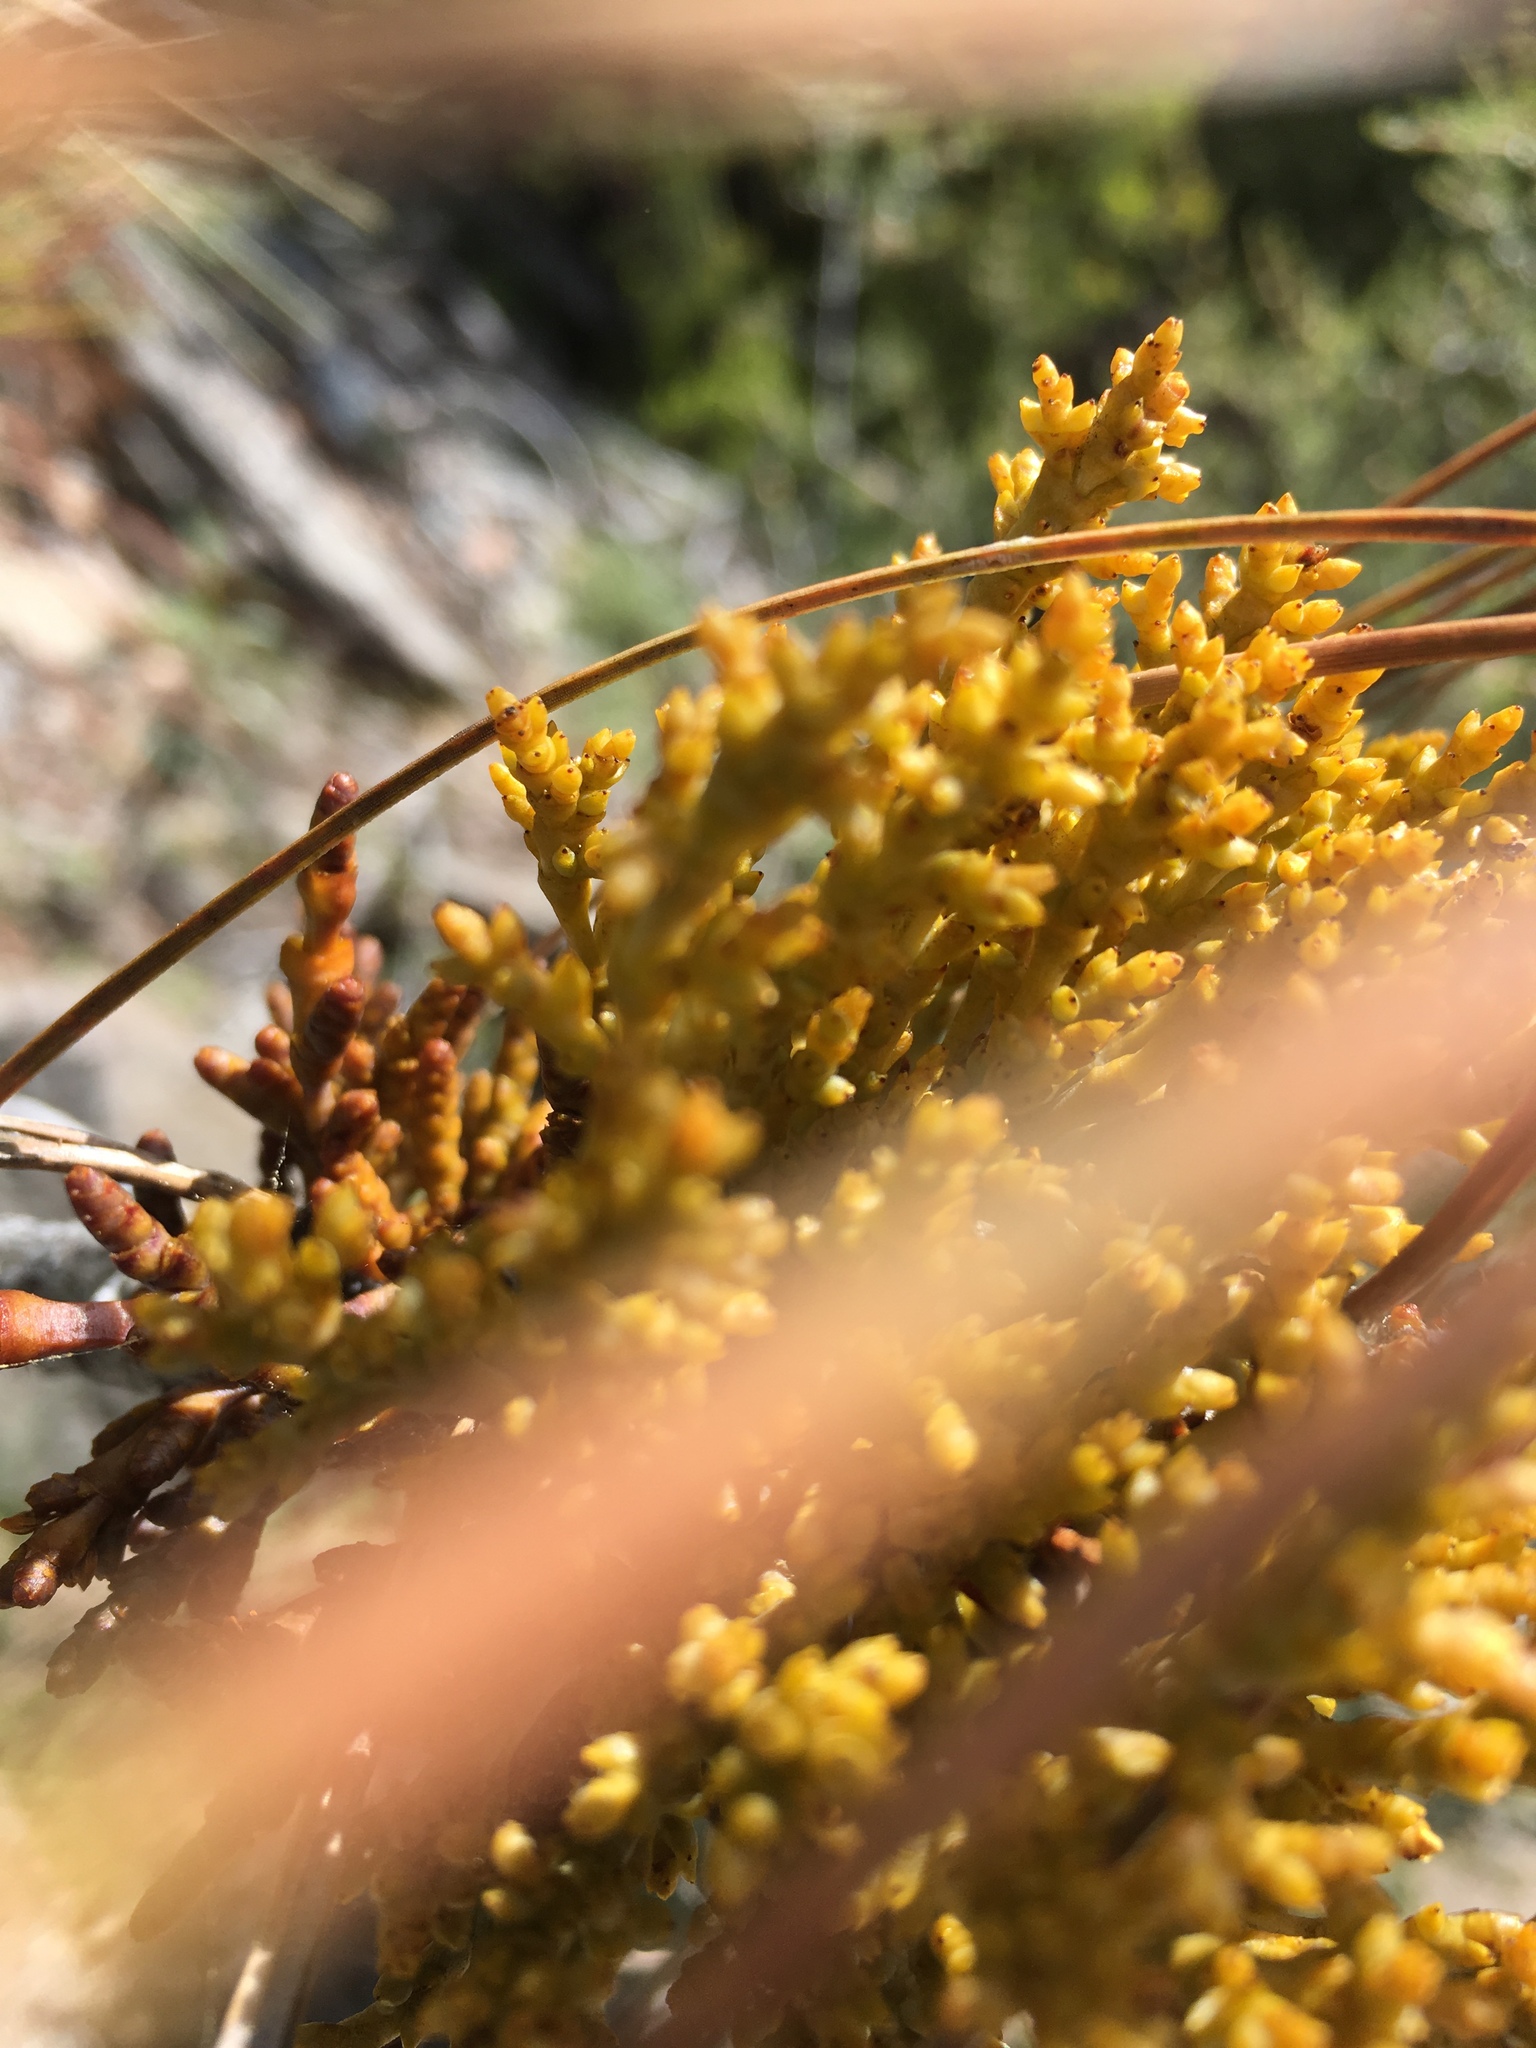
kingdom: Plantae
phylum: Tracheophyta
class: Magnoliopsida
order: Santalales
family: Viscaceae
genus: Arceuthobium
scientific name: Arceuthobium campylopodum
